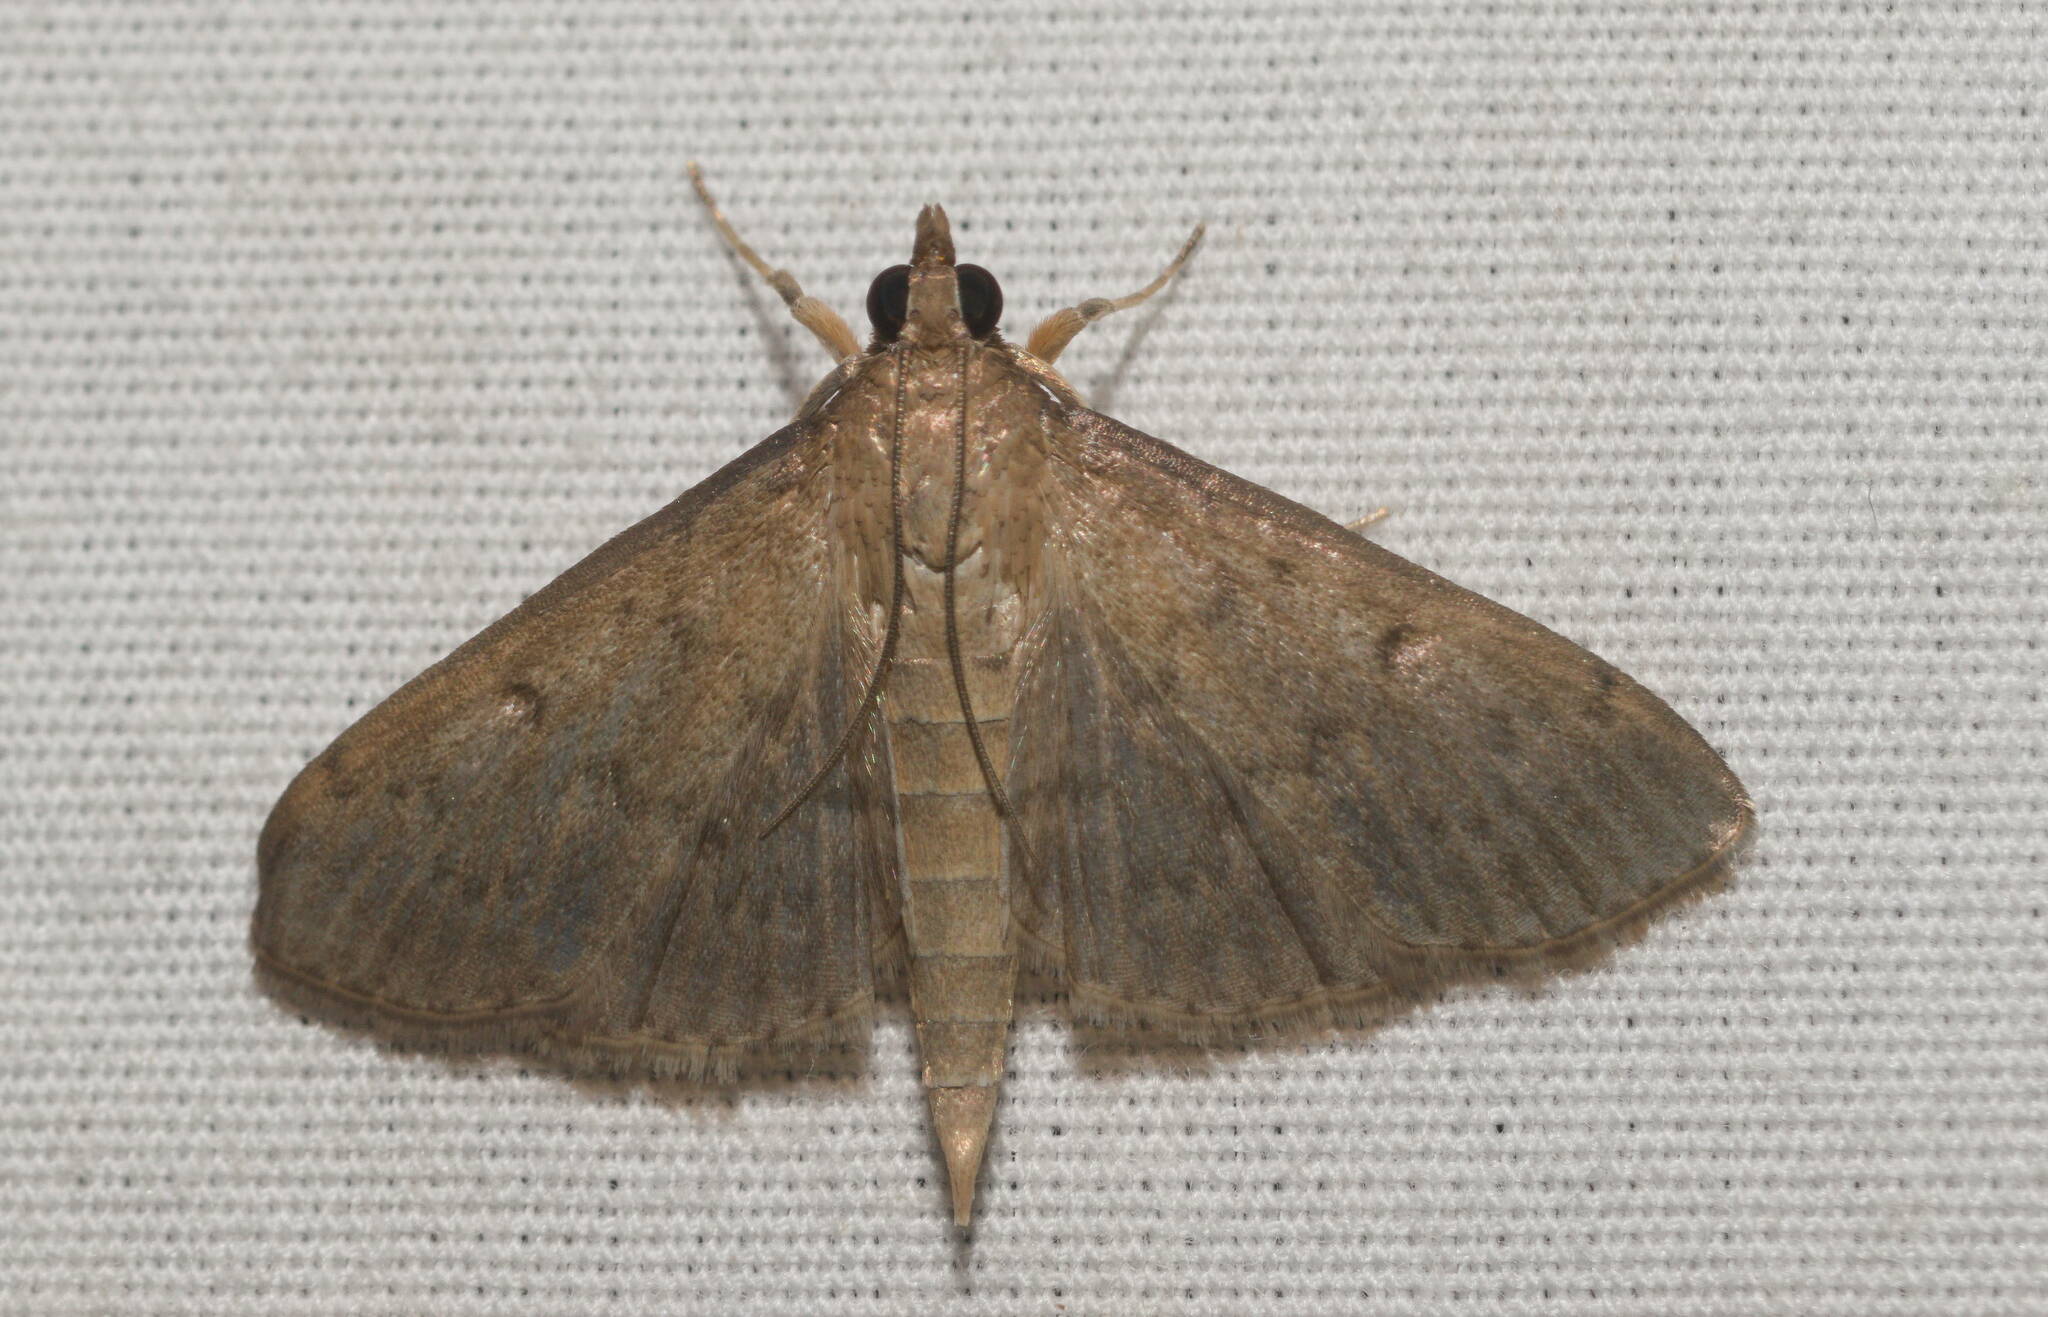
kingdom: Animalia
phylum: Arthropoda
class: Insecta
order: Lepidoptera
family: Crambidae
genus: Herpetogramma
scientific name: Herpetogramma licarsisalis
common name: Grass webworm
